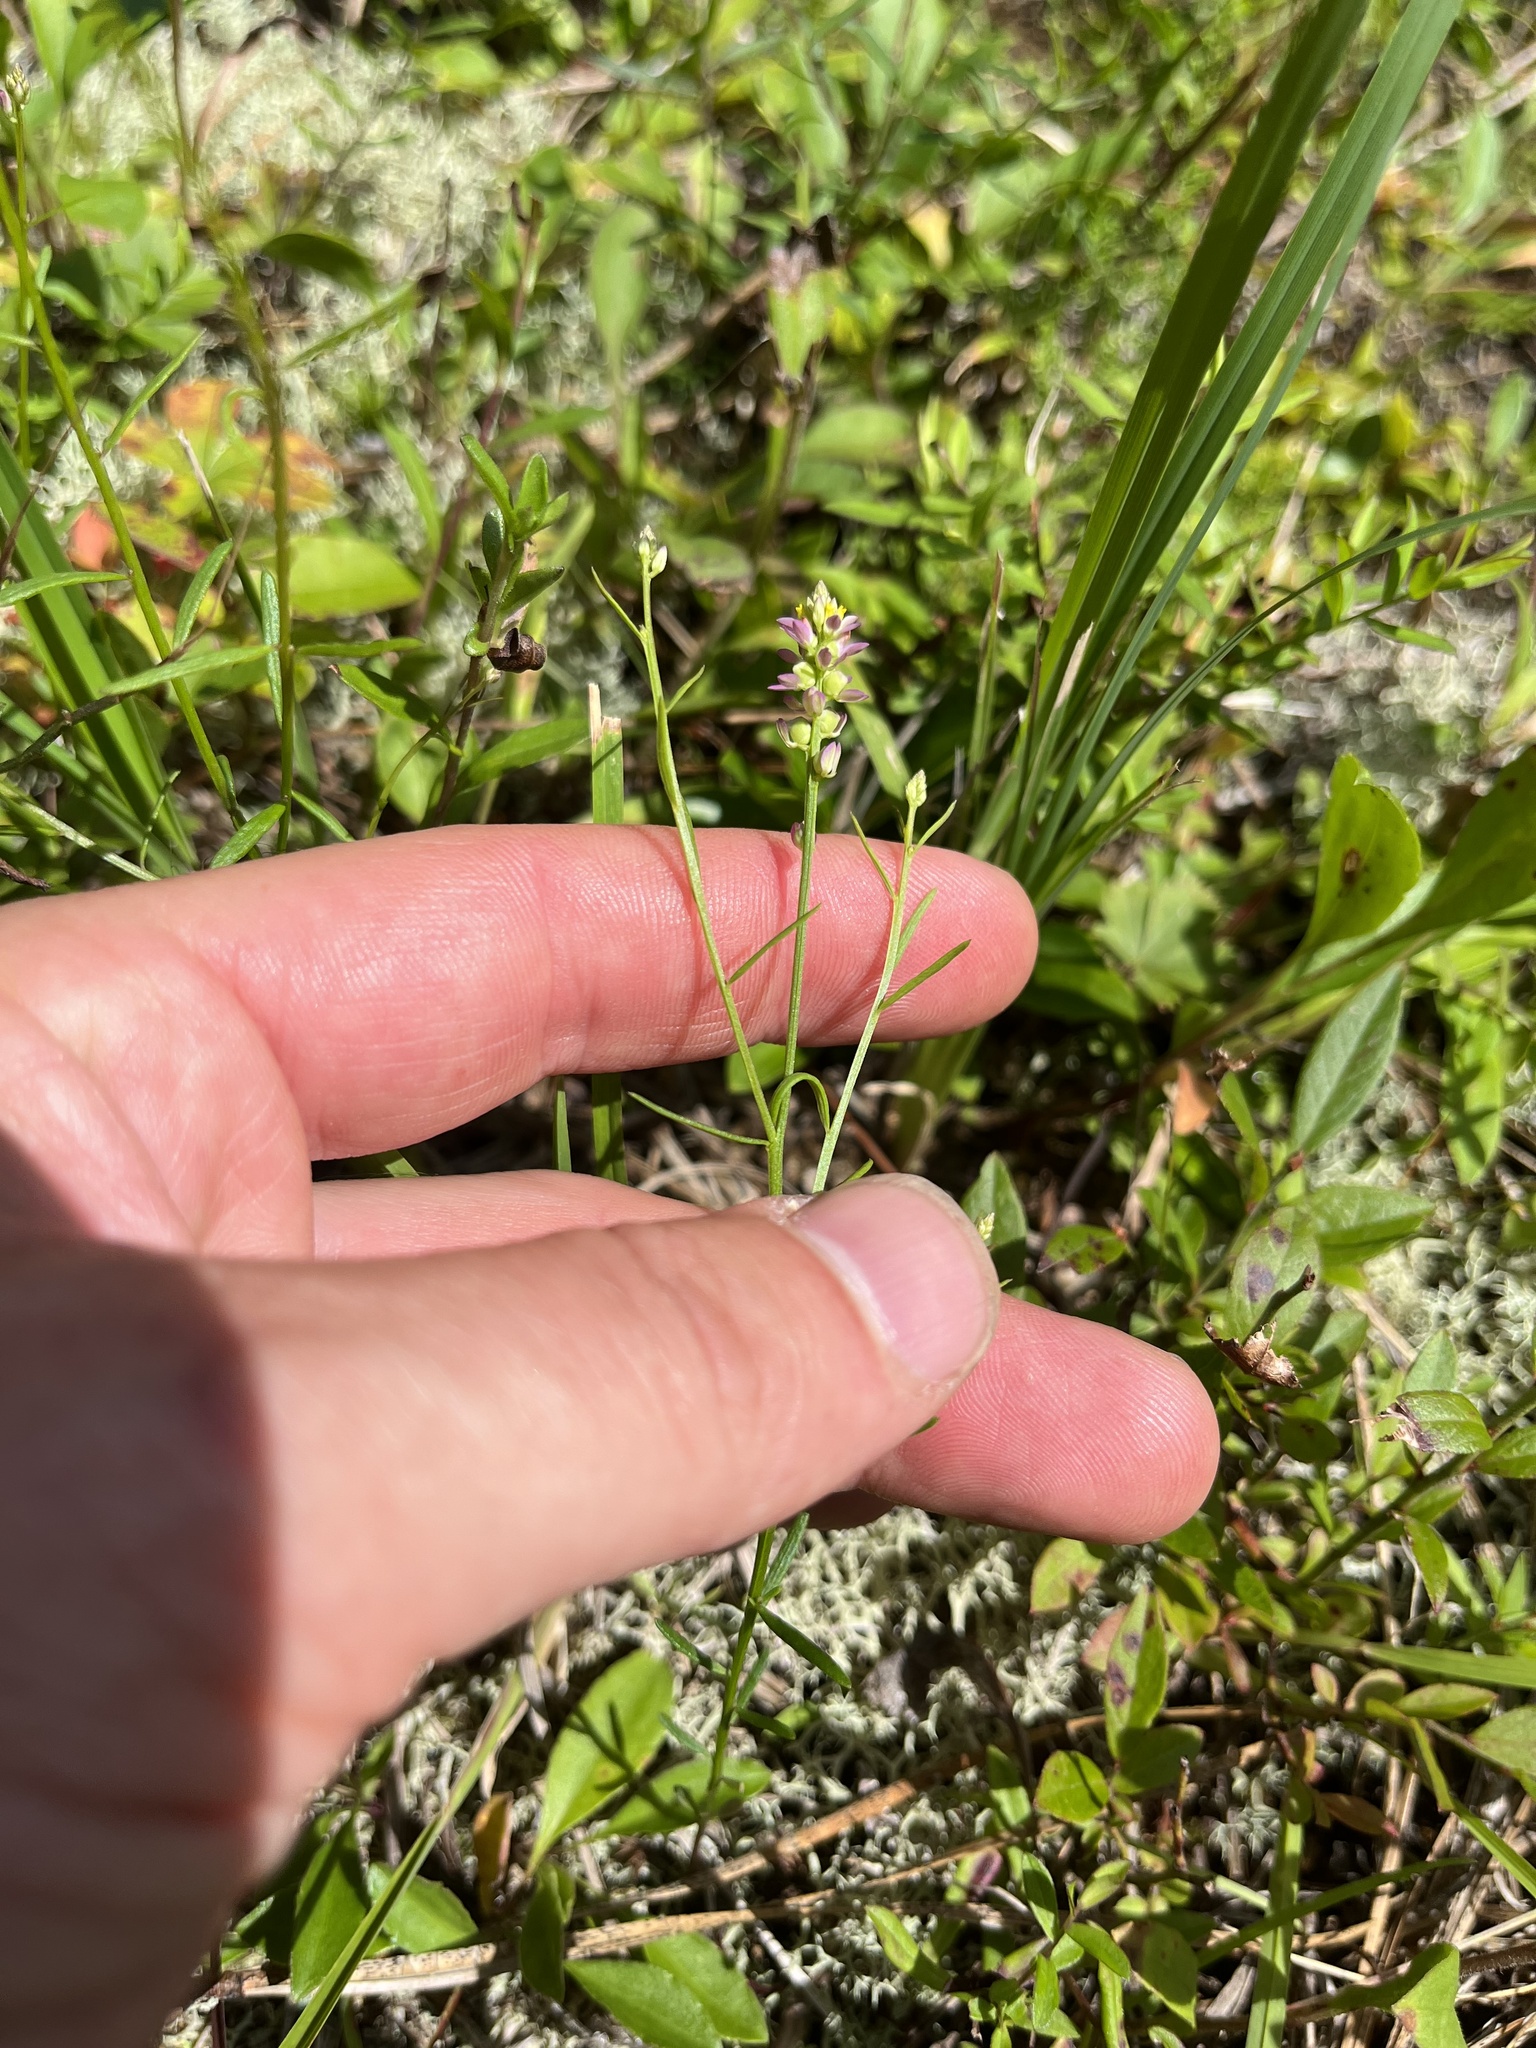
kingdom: Plantae
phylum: Tracheophyta
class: Magnoliopsida
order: Fabales
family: Polygalaceae
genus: Polygala
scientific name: Polygala verticillata
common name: Whorl milkwort
